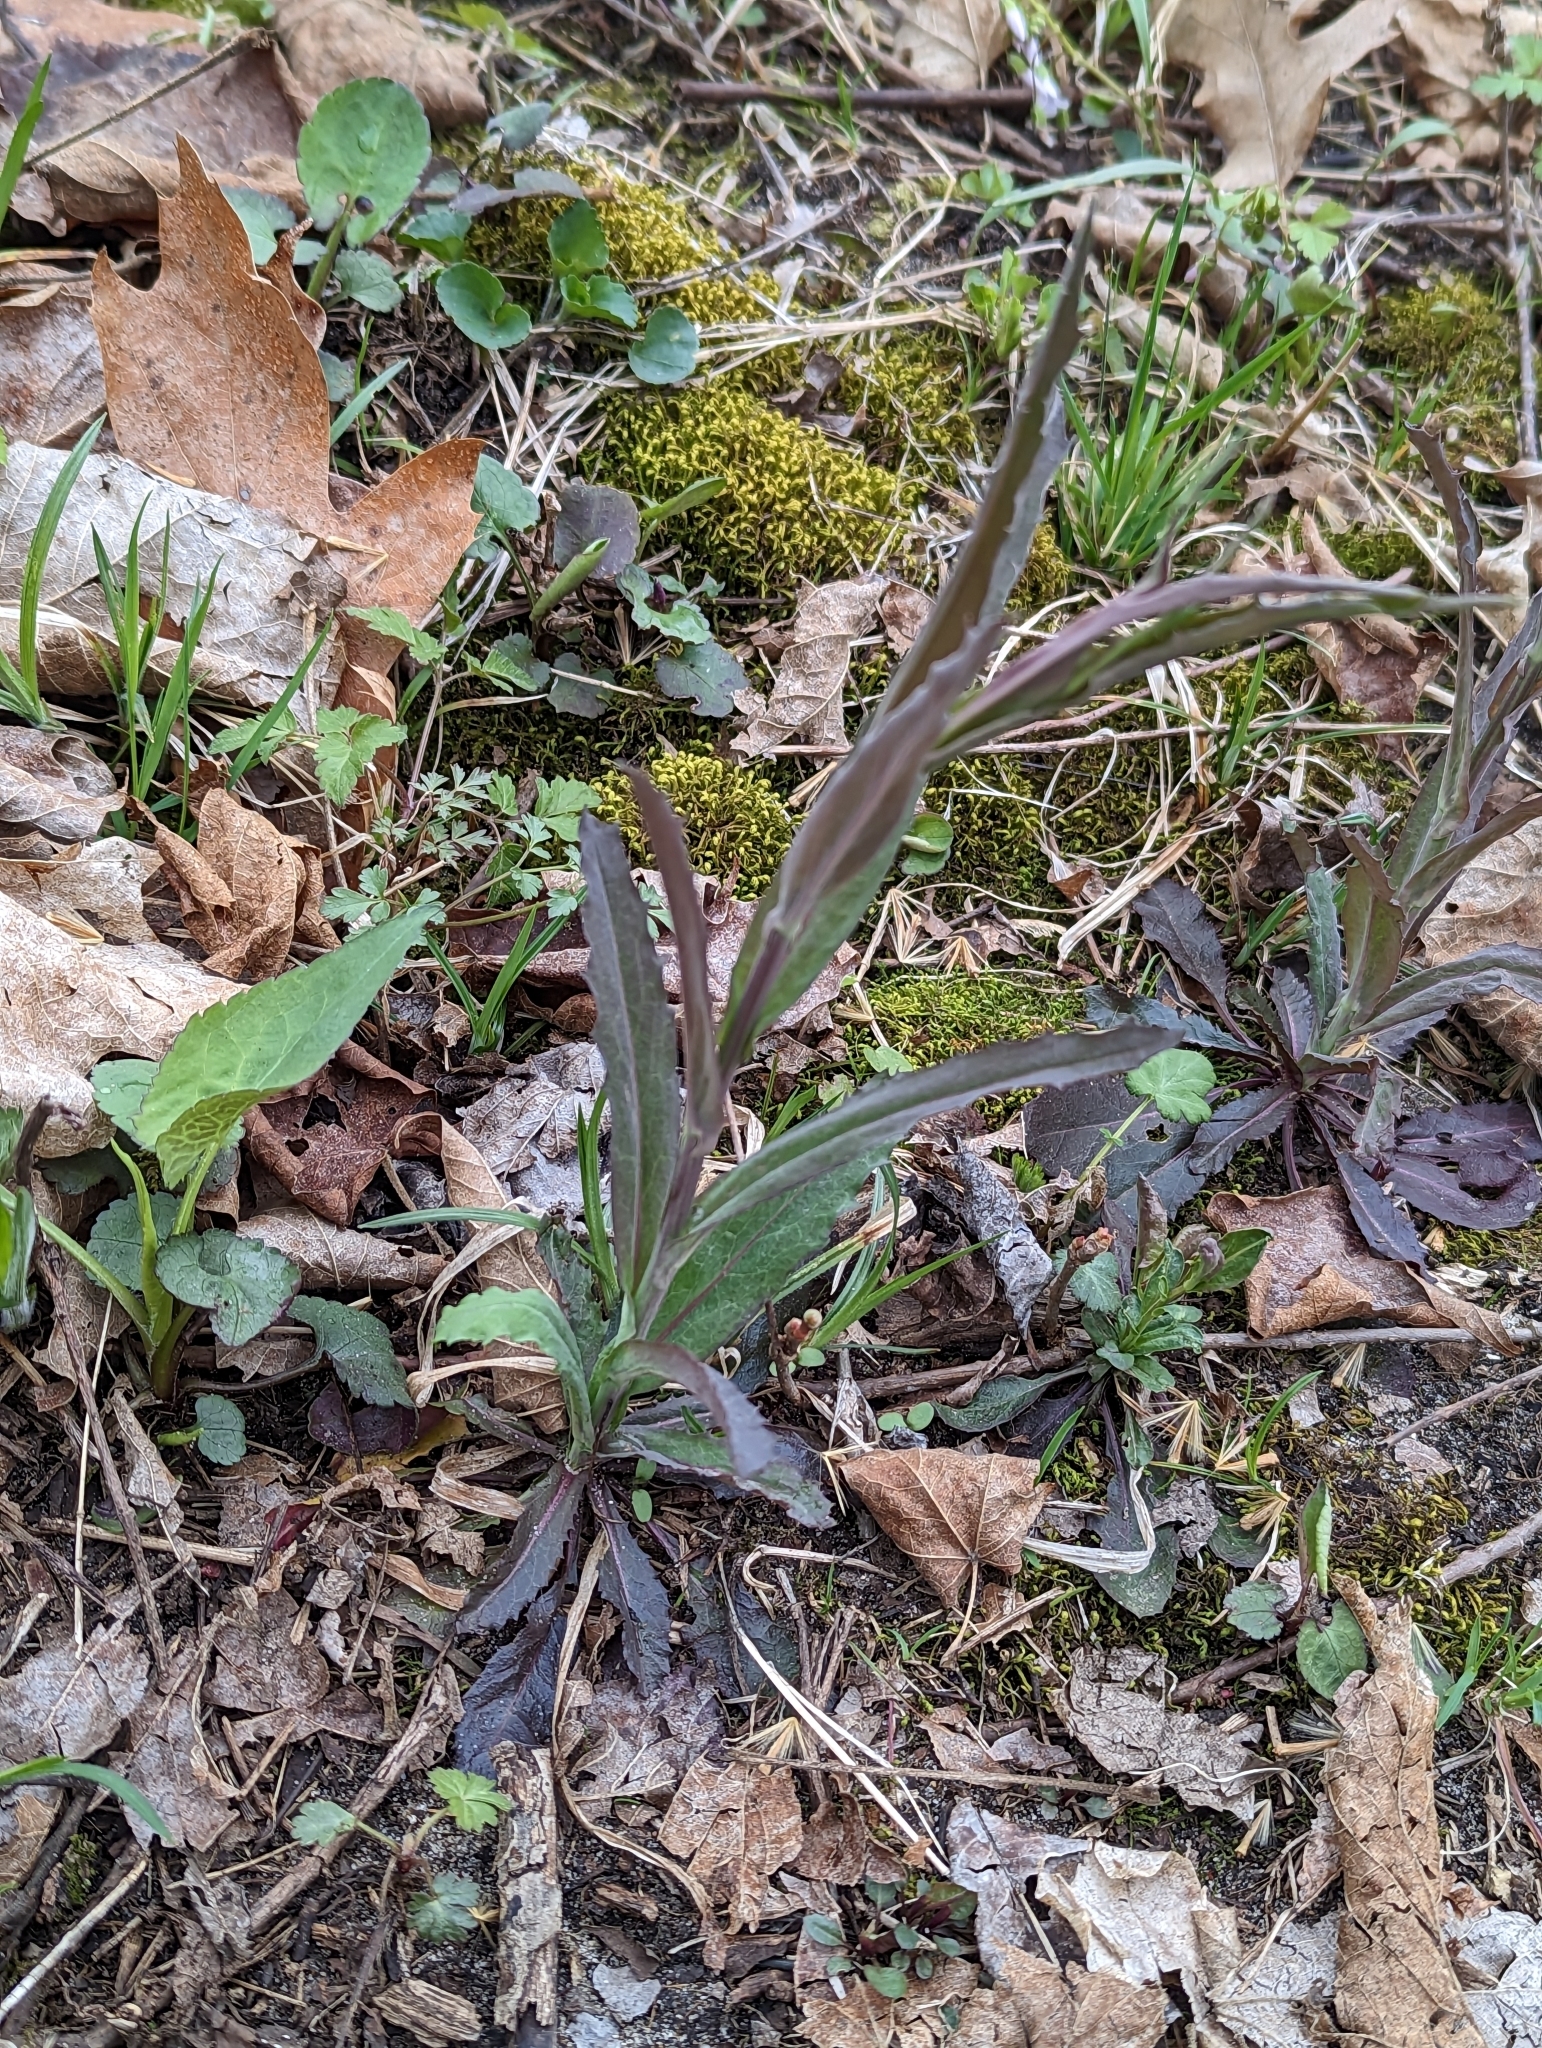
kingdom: Plantae
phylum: Tracheophyta
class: Magnoliopsida
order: Brassicales
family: Brassicaceae
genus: Borodinia
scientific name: Borodinia laevigata
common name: Smooth rockcress
